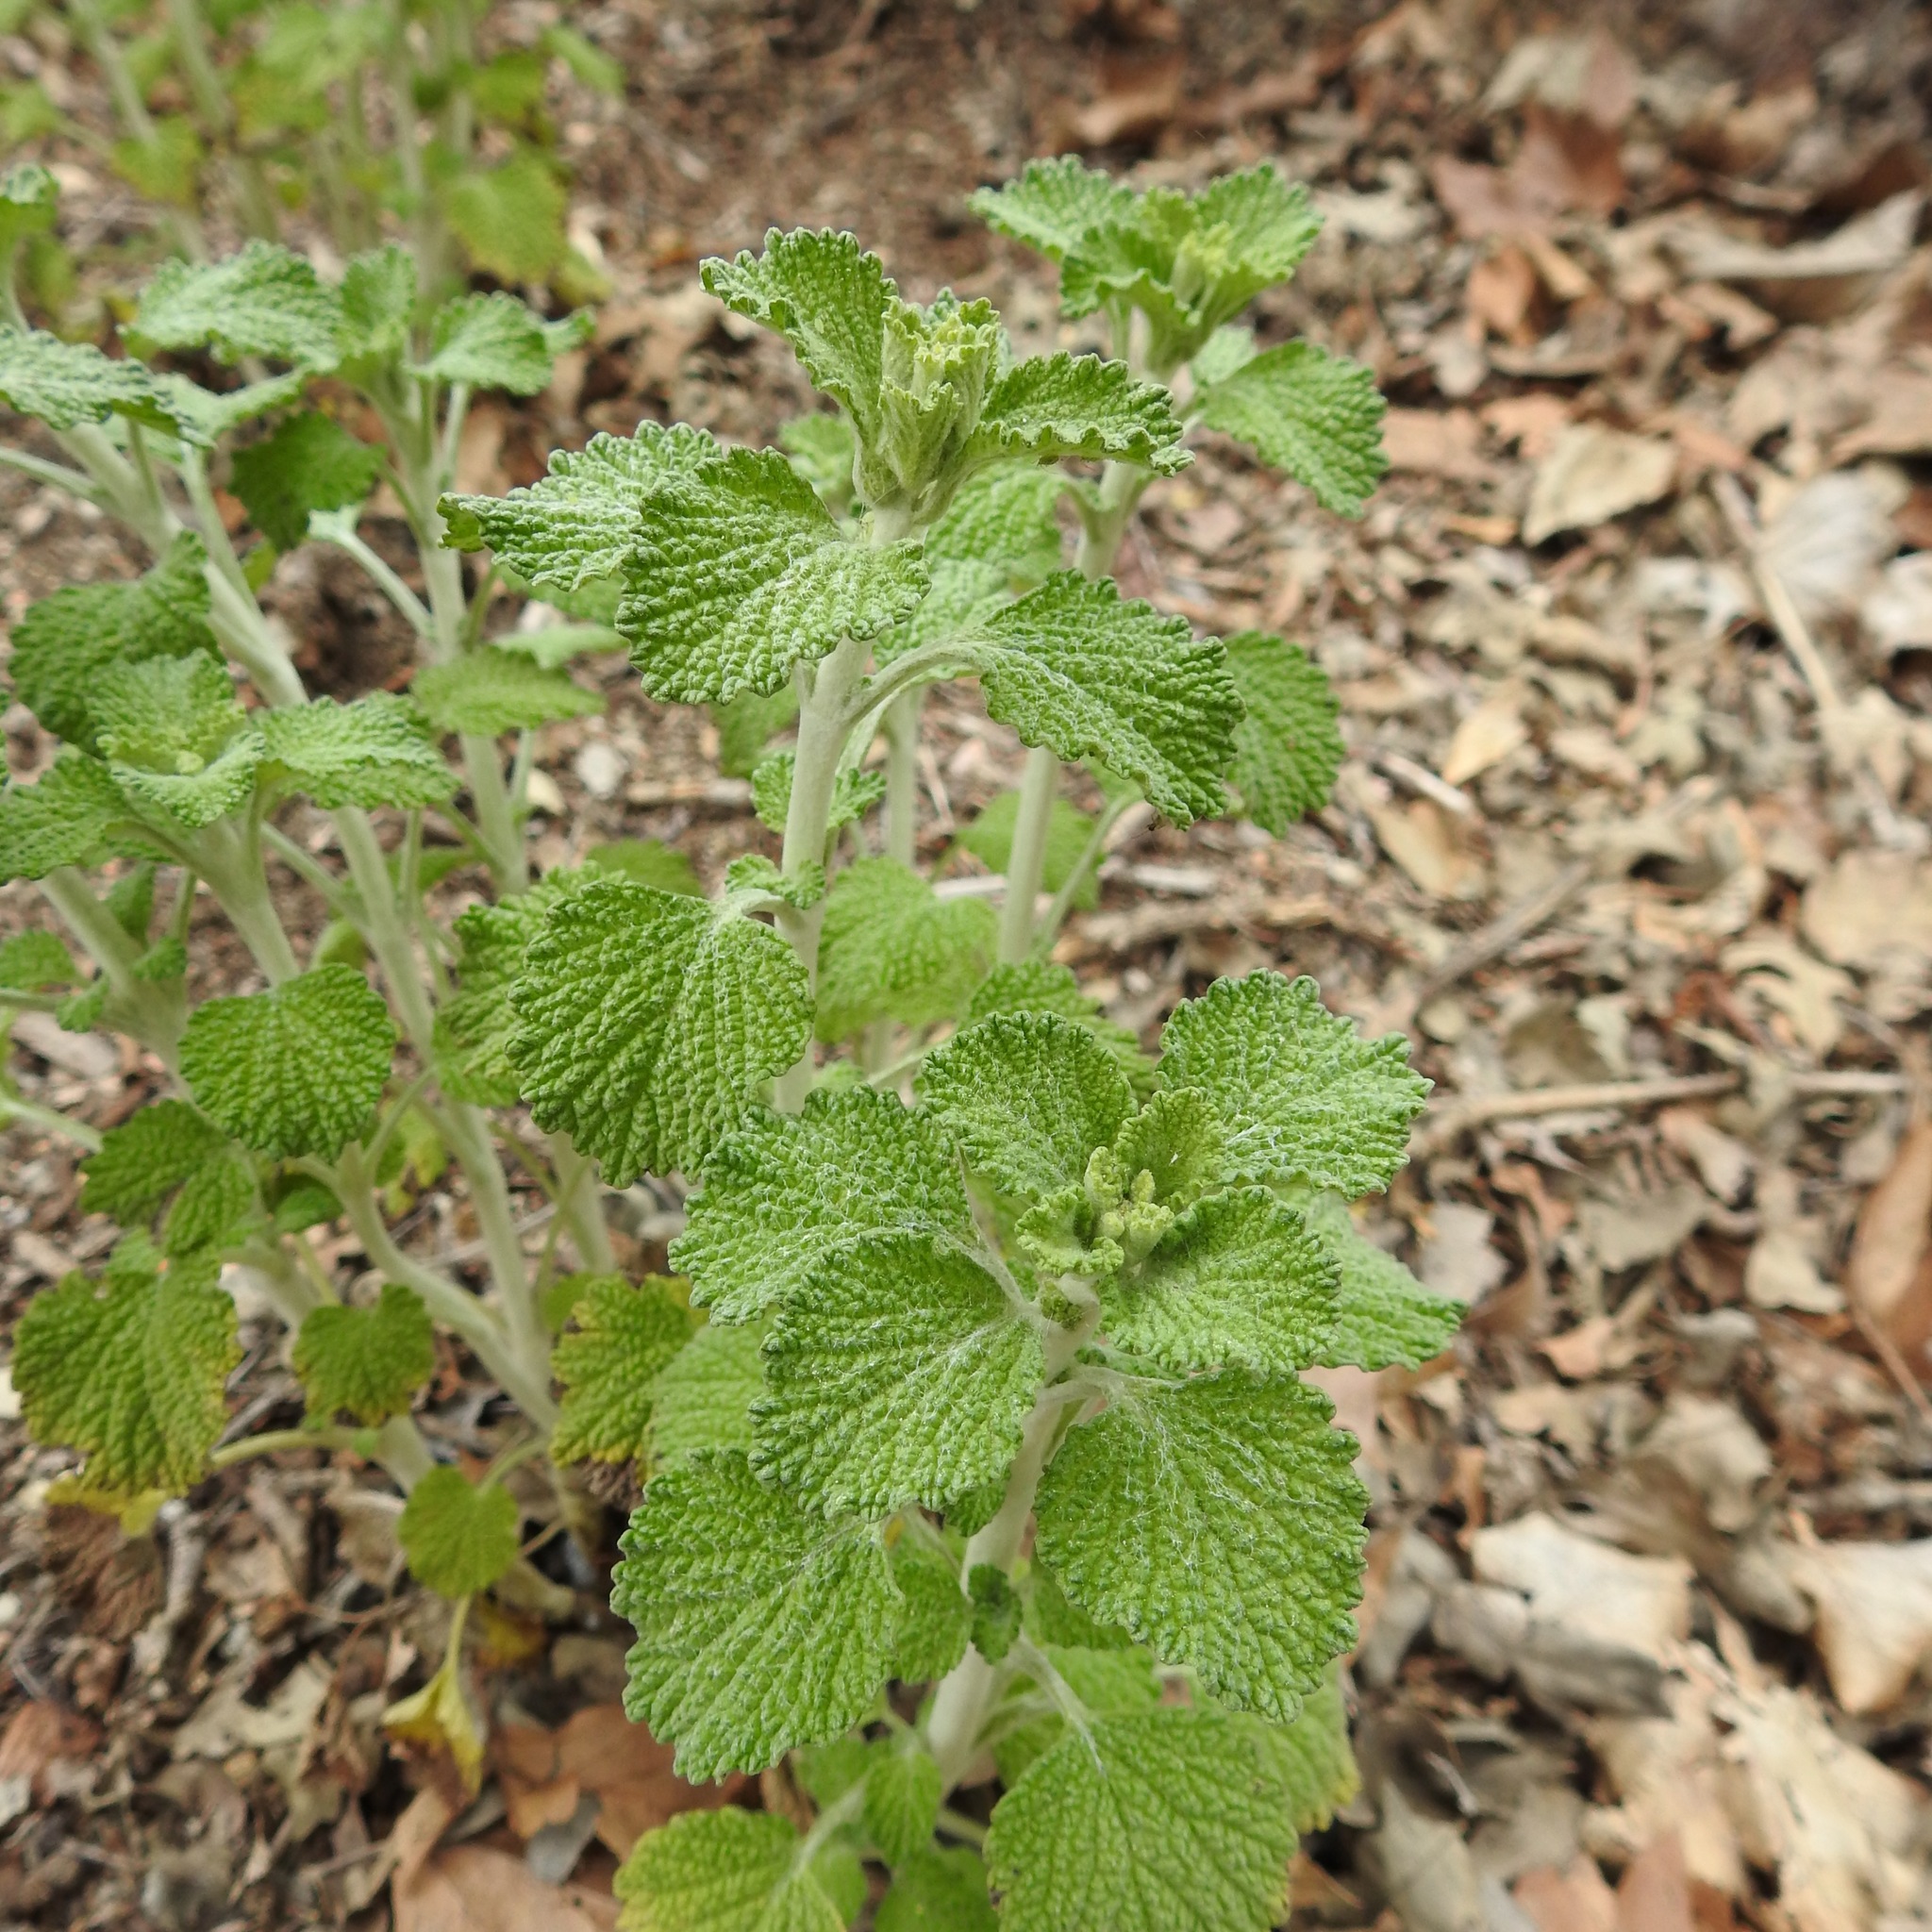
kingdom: Plantae
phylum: Tracheophyta
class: Magnoliopsida
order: Lamiales
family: Lamiaceae
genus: Marrubium
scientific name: Marrubium vulgare
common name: Horehound
